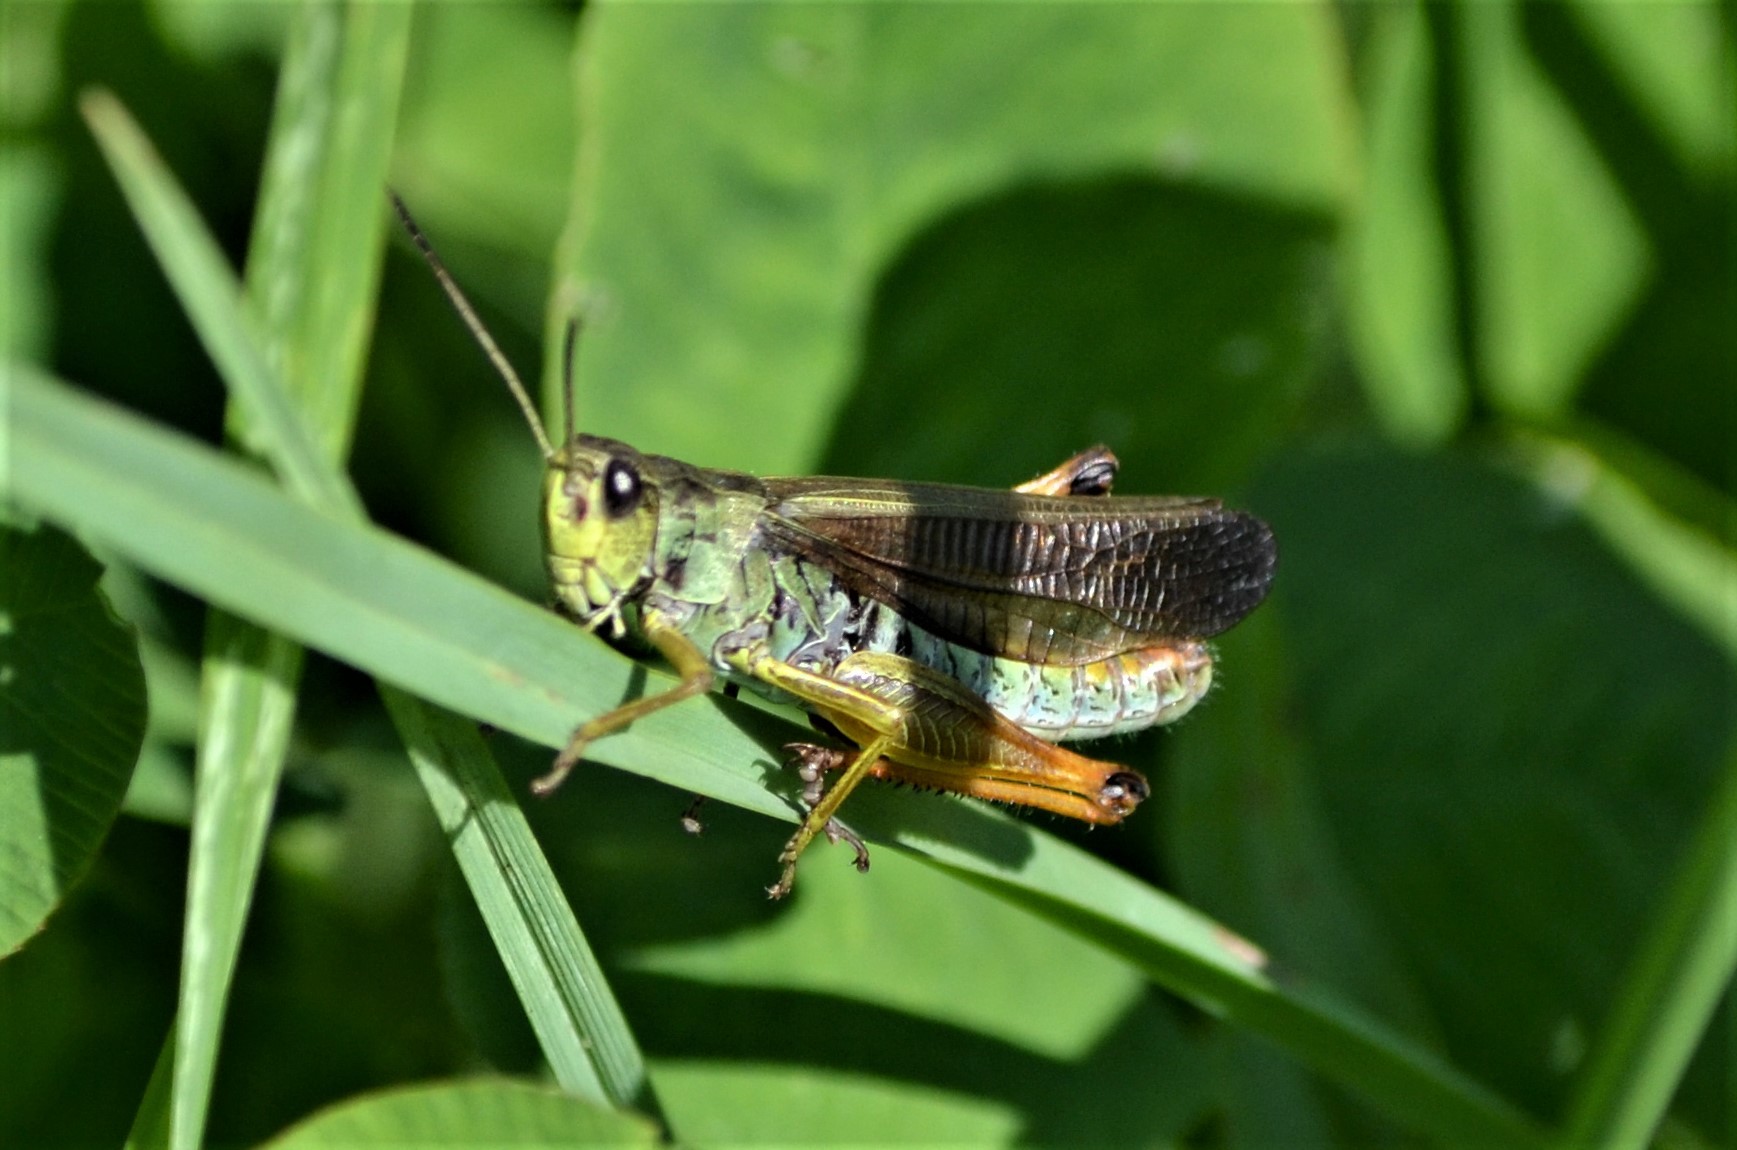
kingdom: Animalia
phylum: Arthropoda
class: Insecta
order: Orthoptera
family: Acrididae
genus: Stauroderus
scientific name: Stauroderus scalaris
